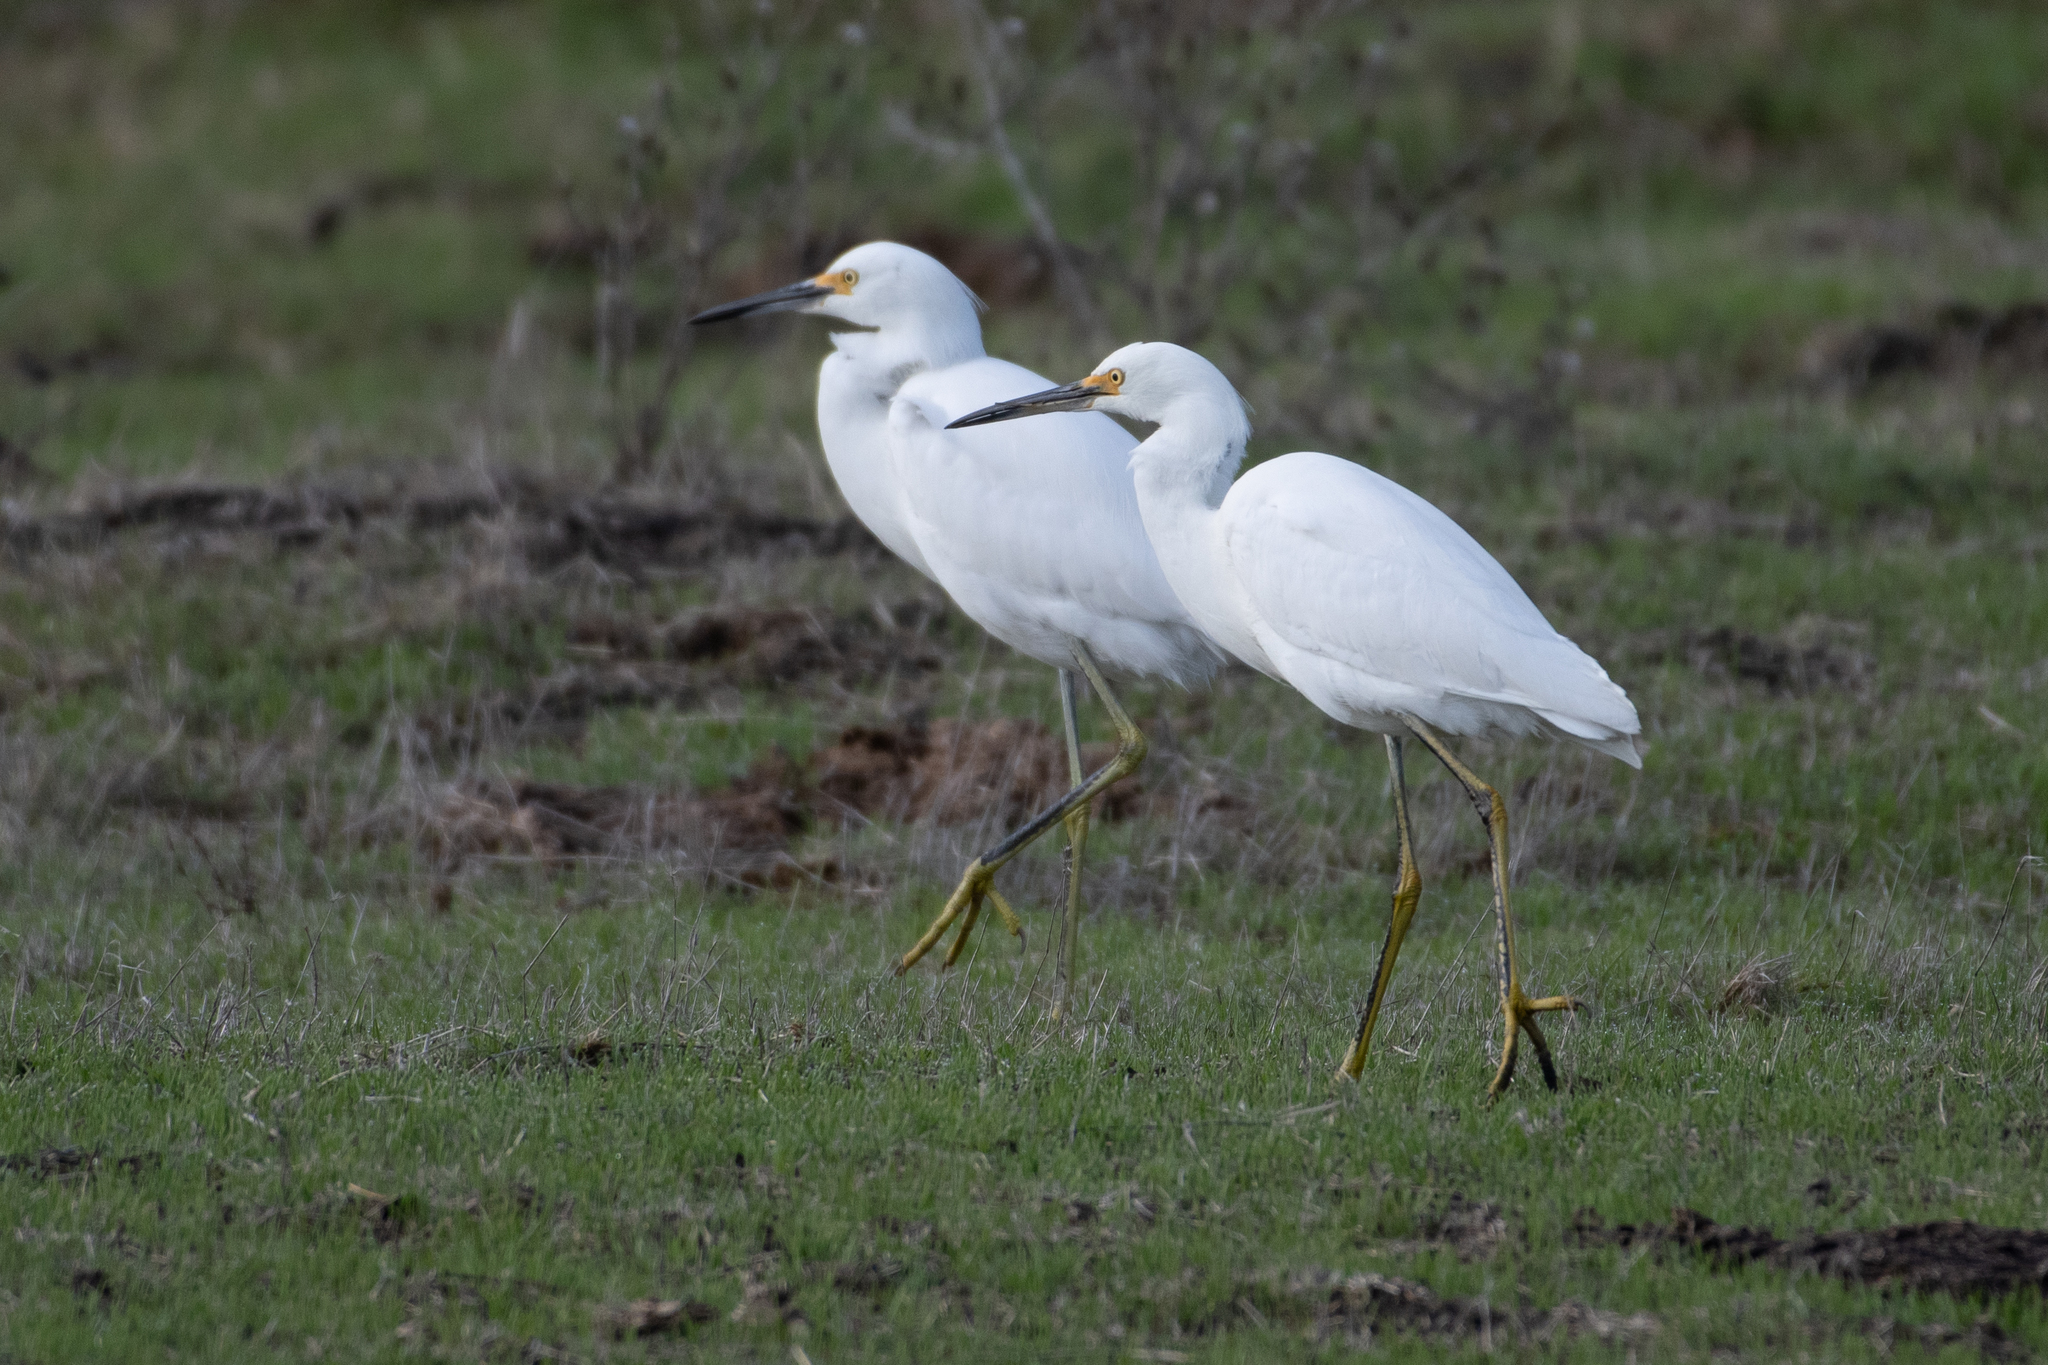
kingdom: Animalia
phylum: Chordata
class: Aves
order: Pelecaniformes
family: Ardeidae
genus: Egretta
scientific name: Egretta thula
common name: Snowy egret
